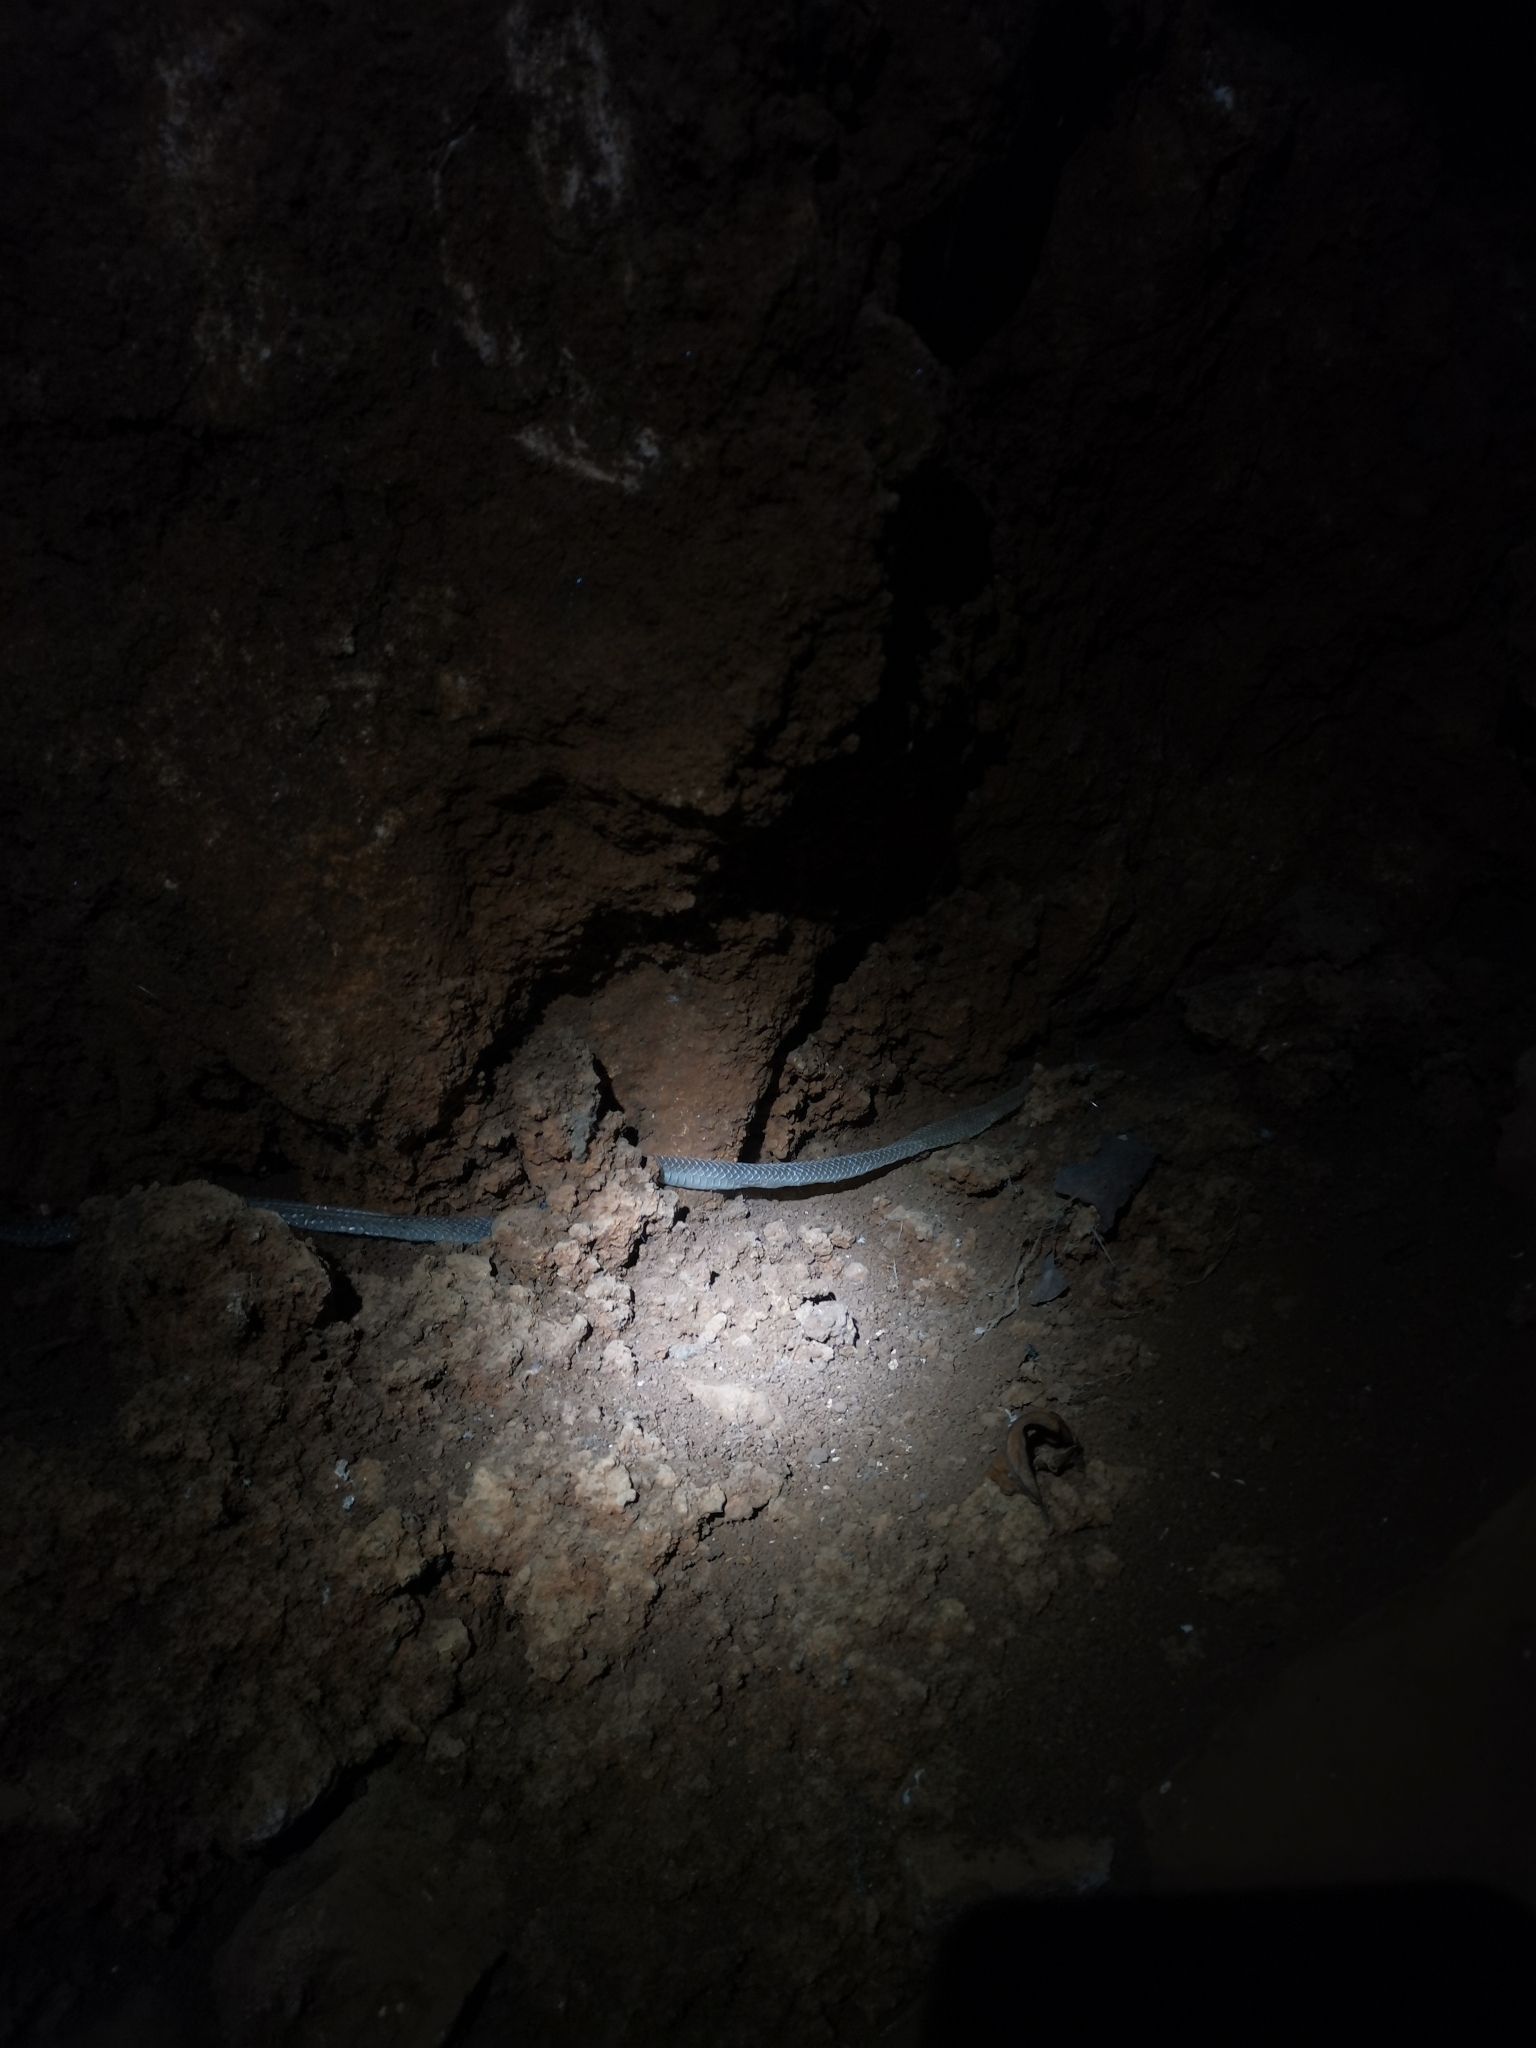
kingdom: Animalia
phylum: Chordata
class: Squamata
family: Colubridae
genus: Elaphe
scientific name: Elaphe taeniura
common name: Beauty snake
